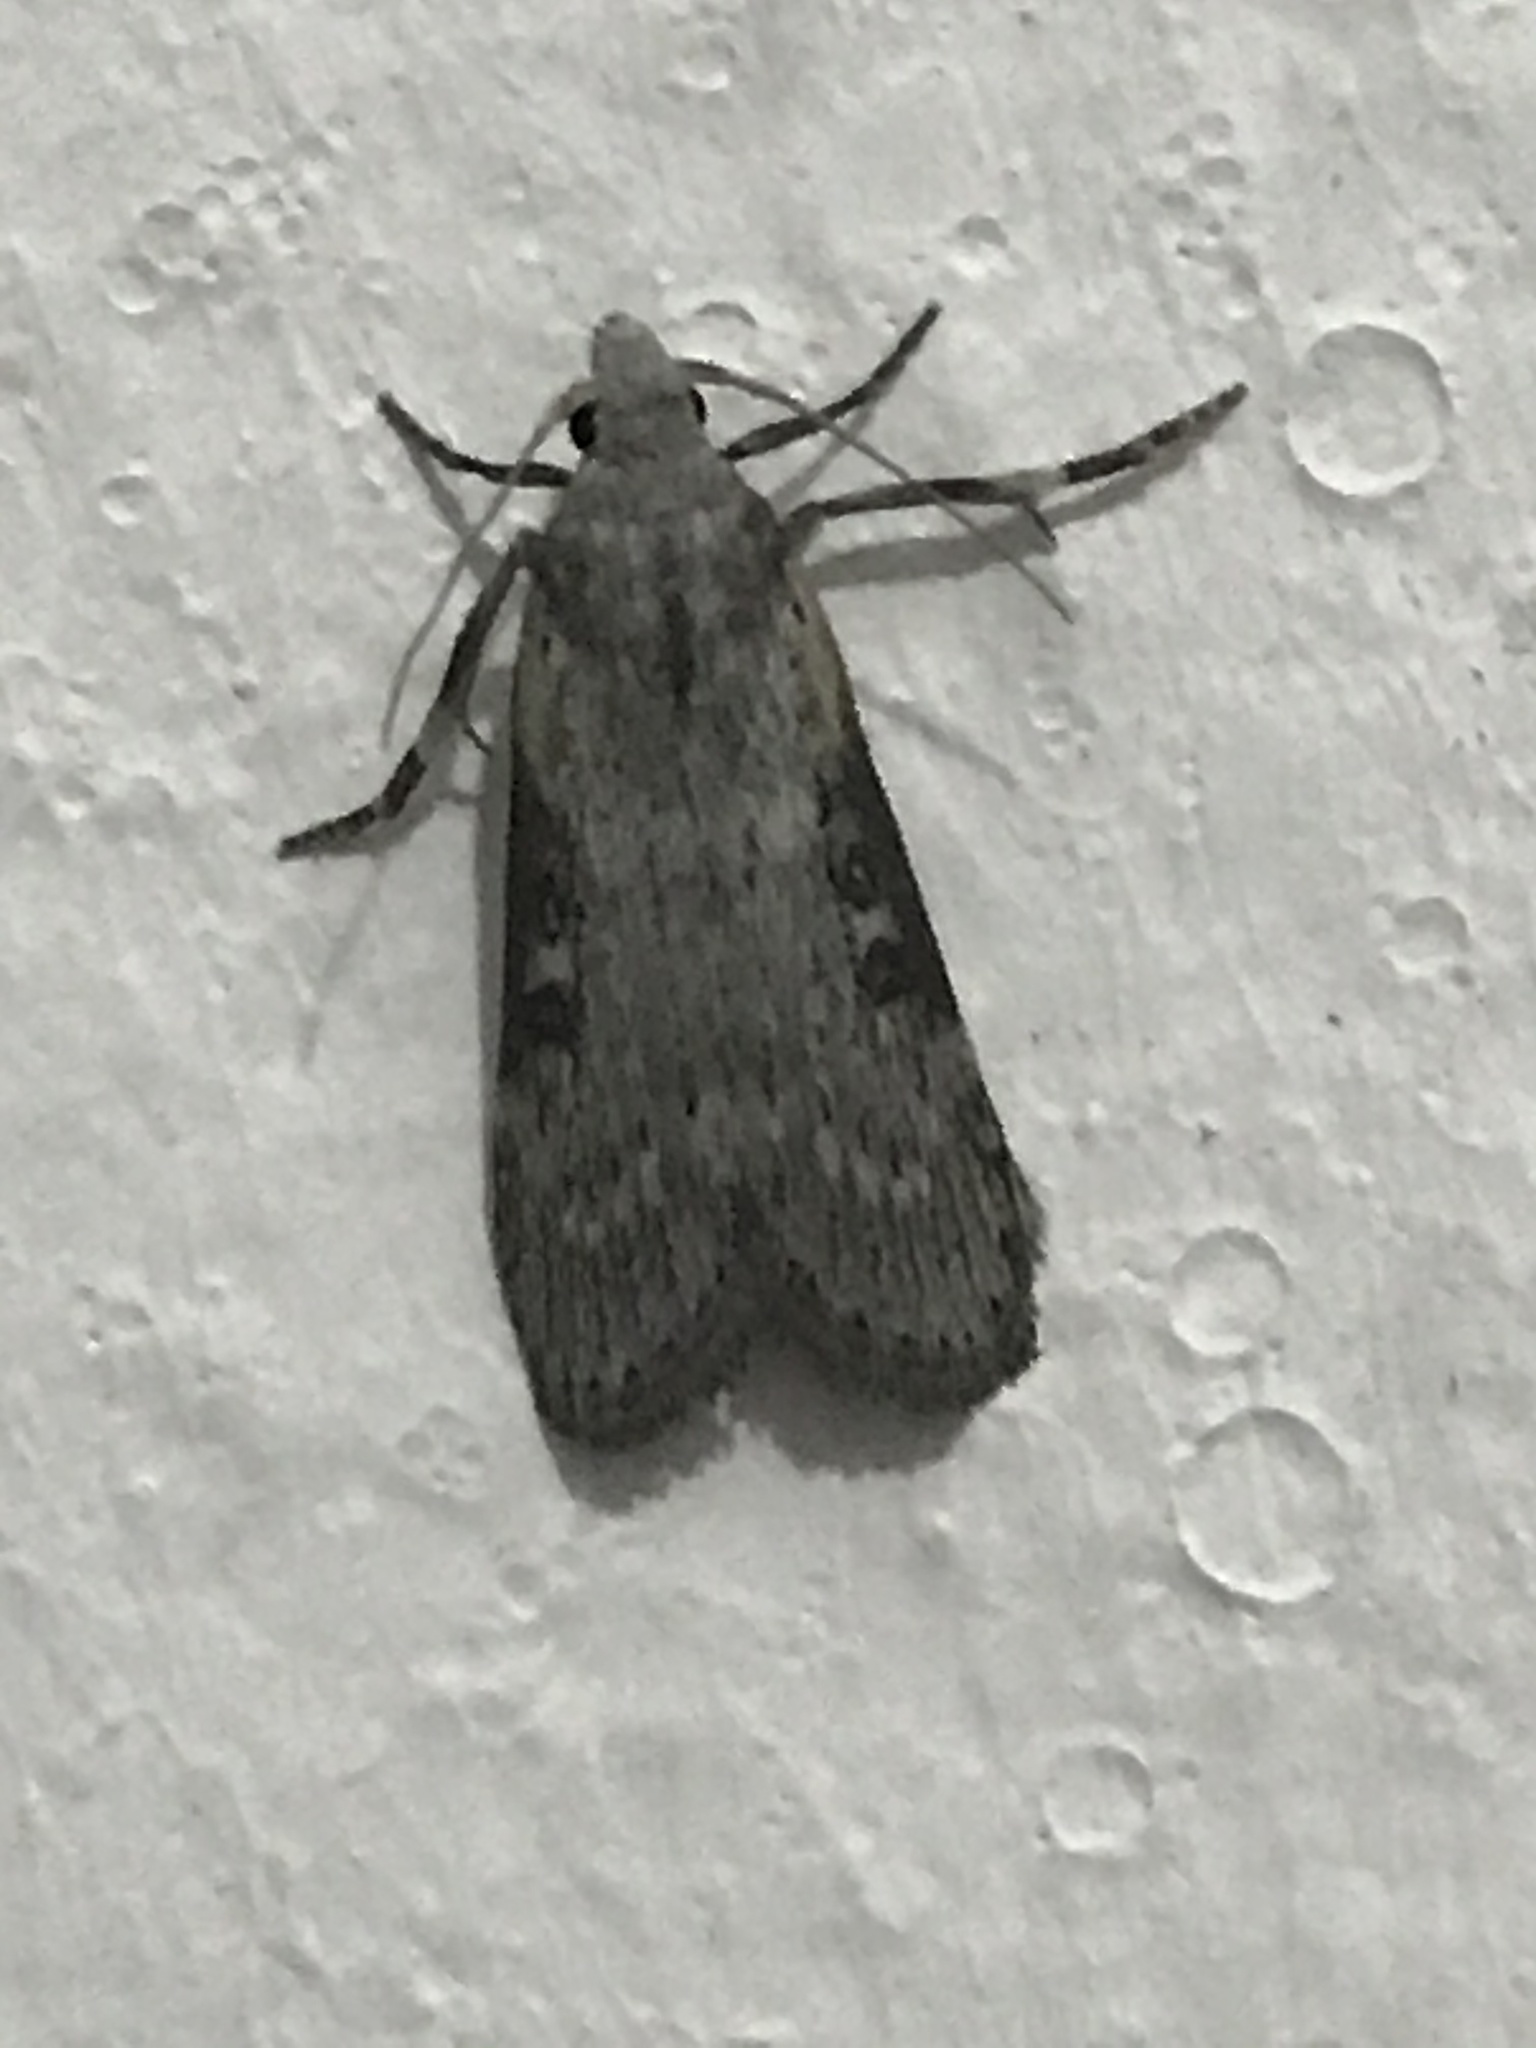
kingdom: Animalia
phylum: Arthropoda
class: Insecta
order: Lepidoptera
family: Pyralidae
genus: Lamoria
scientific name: Lamoria anella
